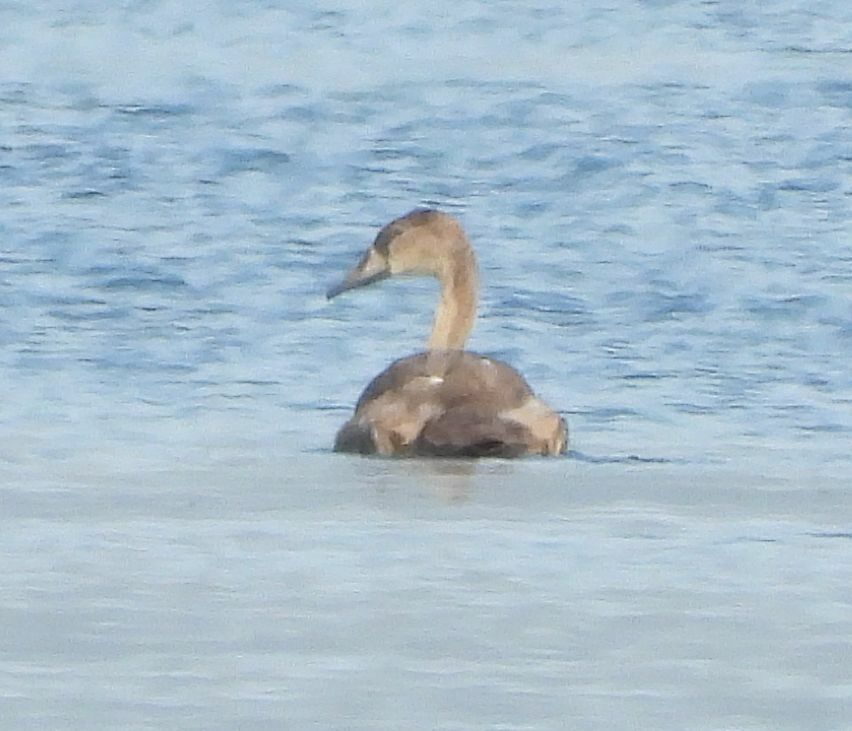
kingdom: Animalia
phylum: Chordata
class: Aves
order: Anseriformes
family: Anatidae
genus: Cygnus
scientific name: Cygnus olor
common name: Mute swan
